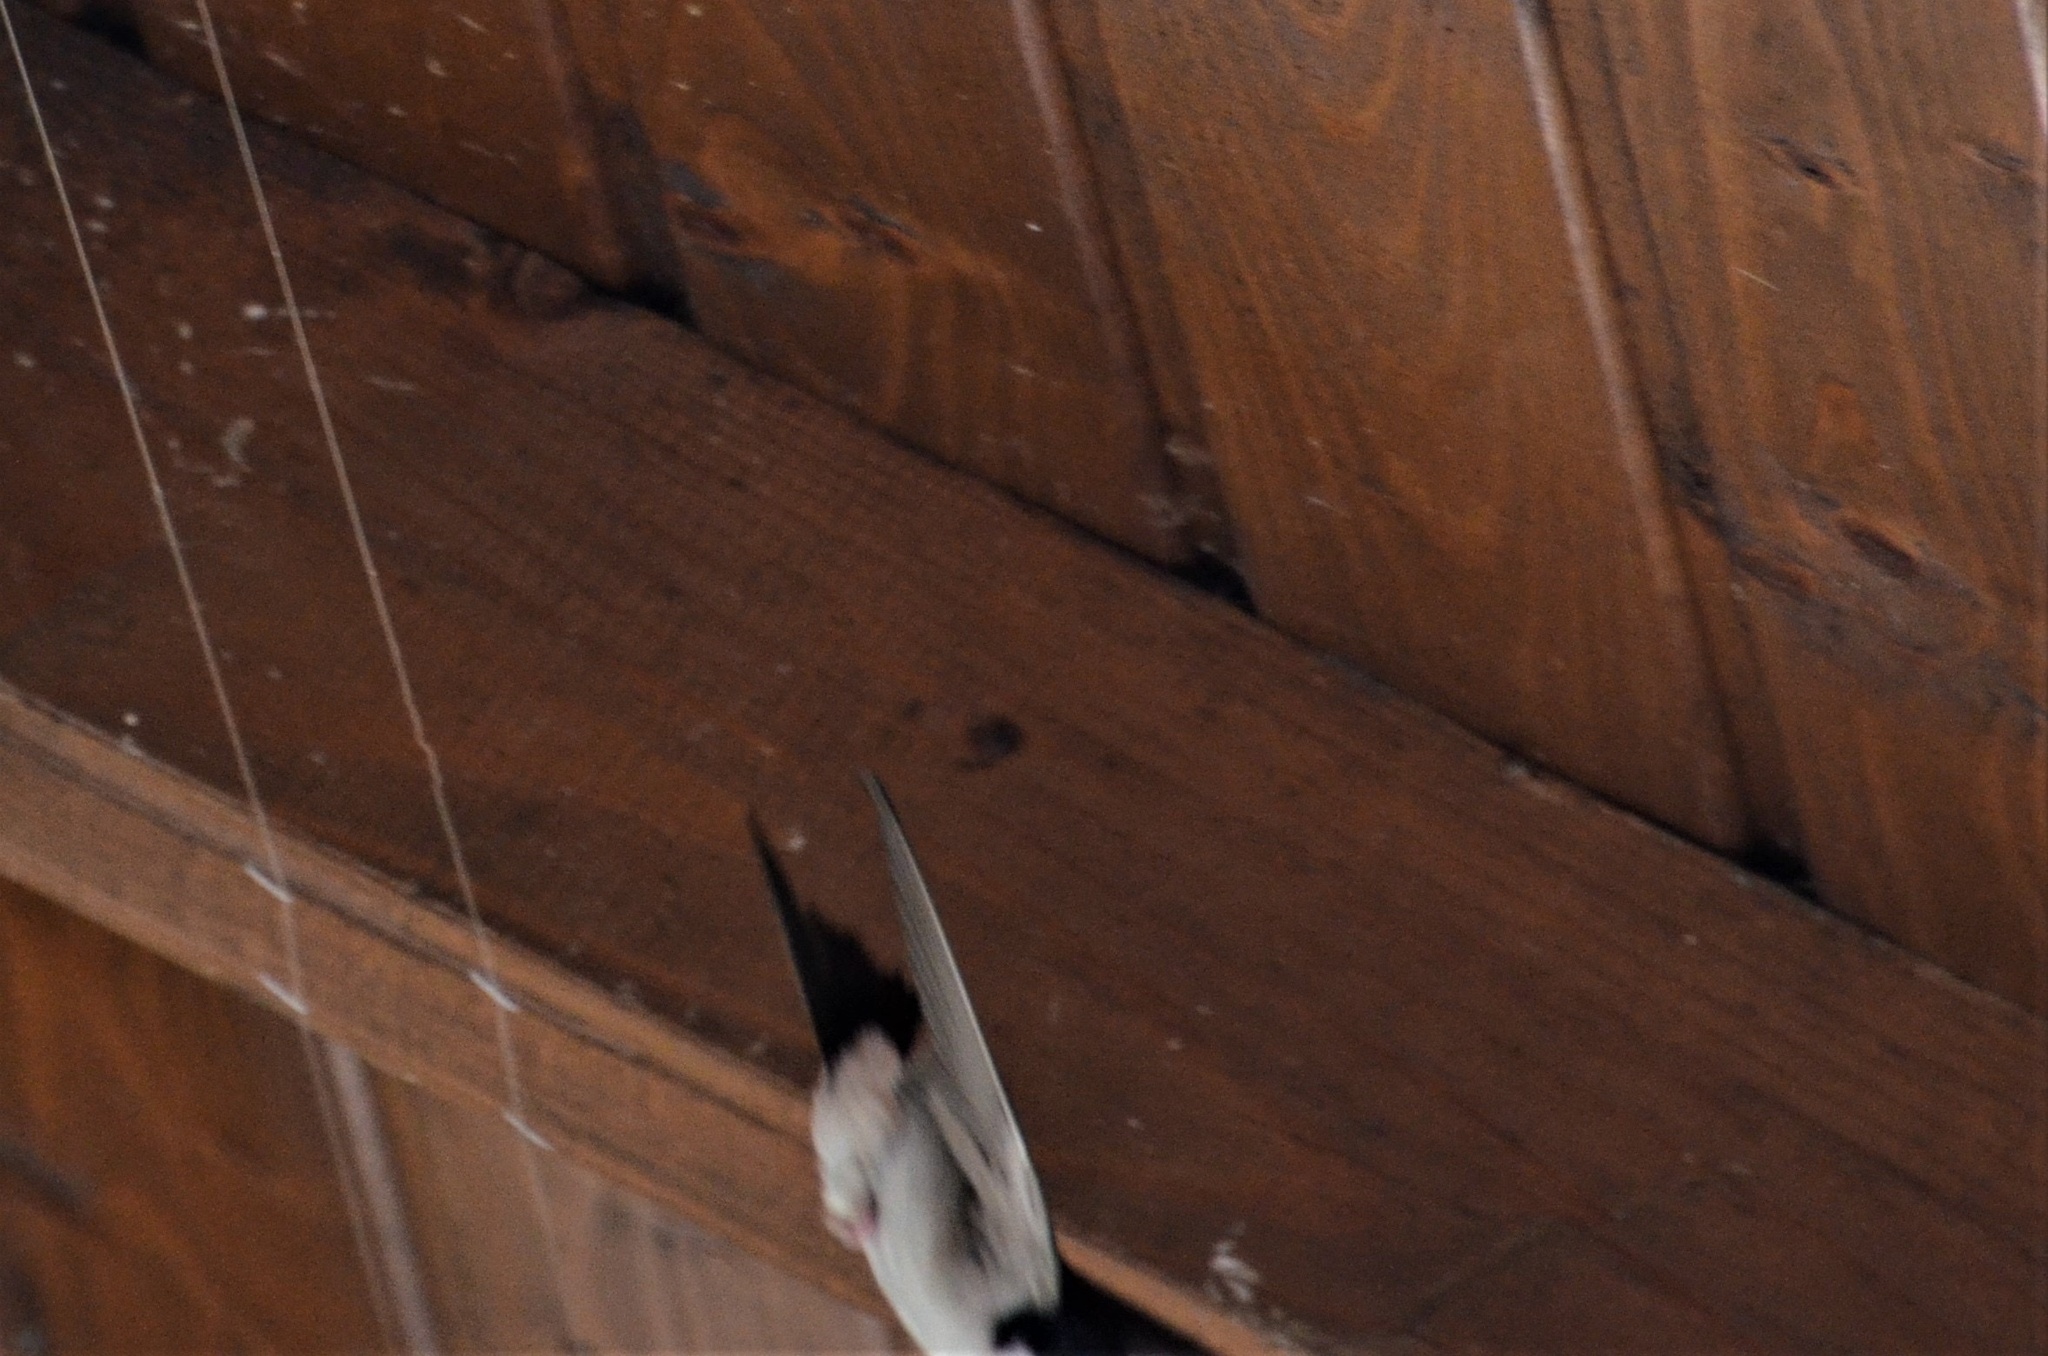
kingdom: Animalia
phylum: Chordata
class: Aves
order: Passeriformes
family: Hirundinidae
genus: Delichon
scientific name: Delichon urbicum
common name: Common house martin
